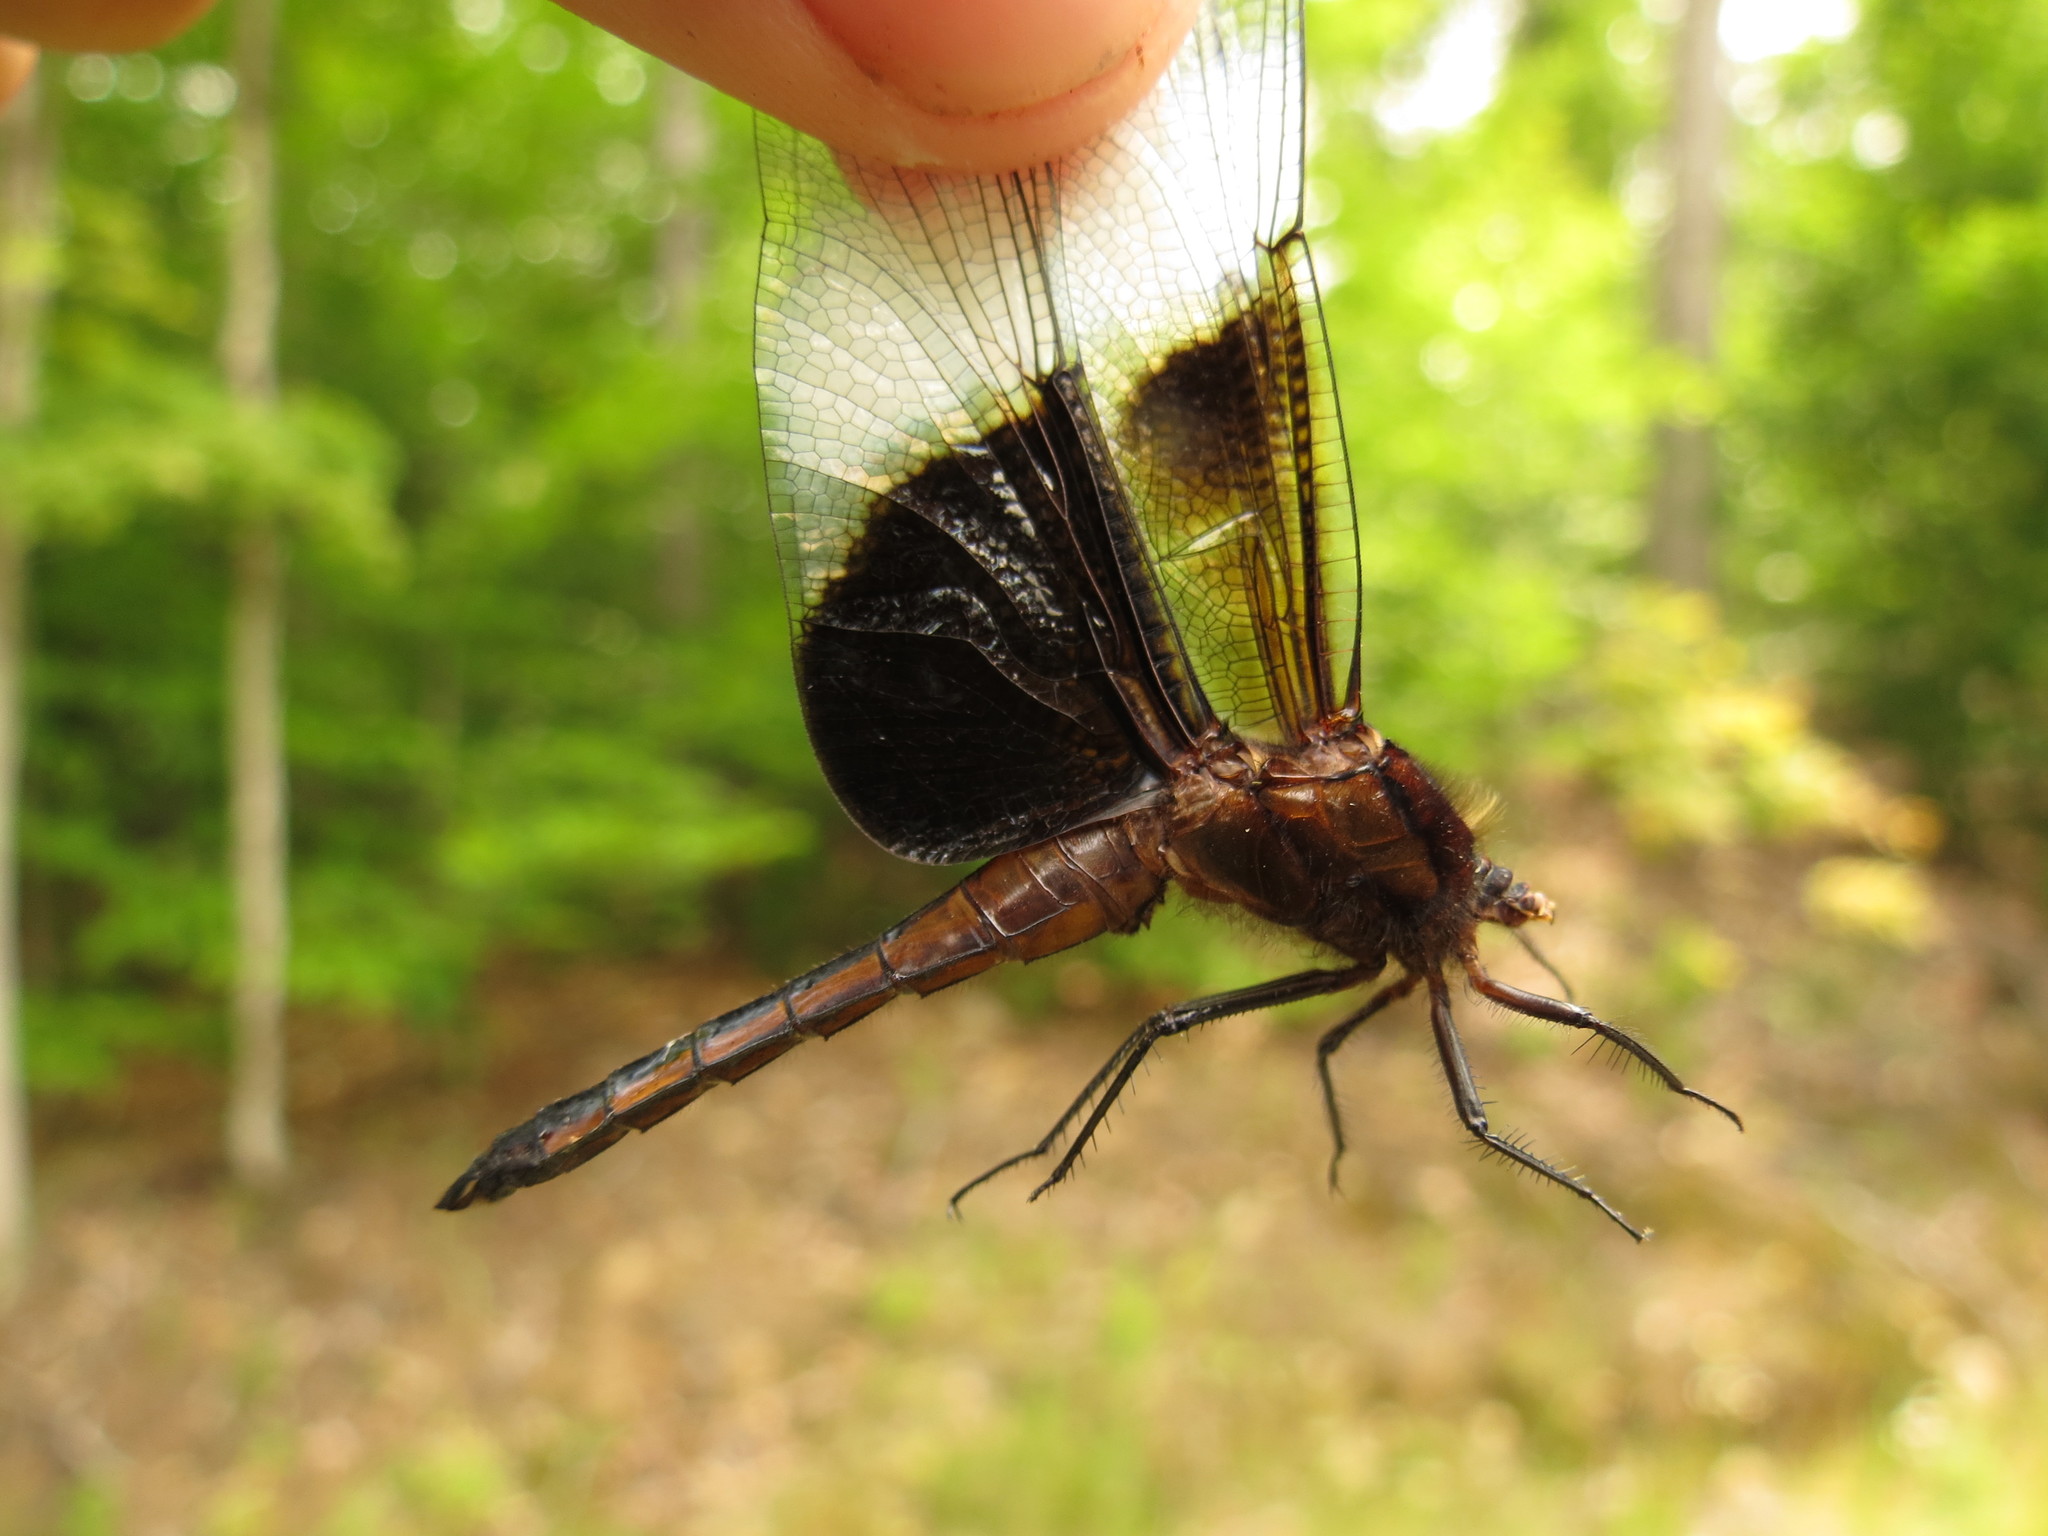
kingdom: Animalia
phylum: Arthropoda
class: Insecta
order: Odonata
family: Libellulidae
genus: Libellula
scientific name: Libellula luctuosa
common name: Widow skimmer
